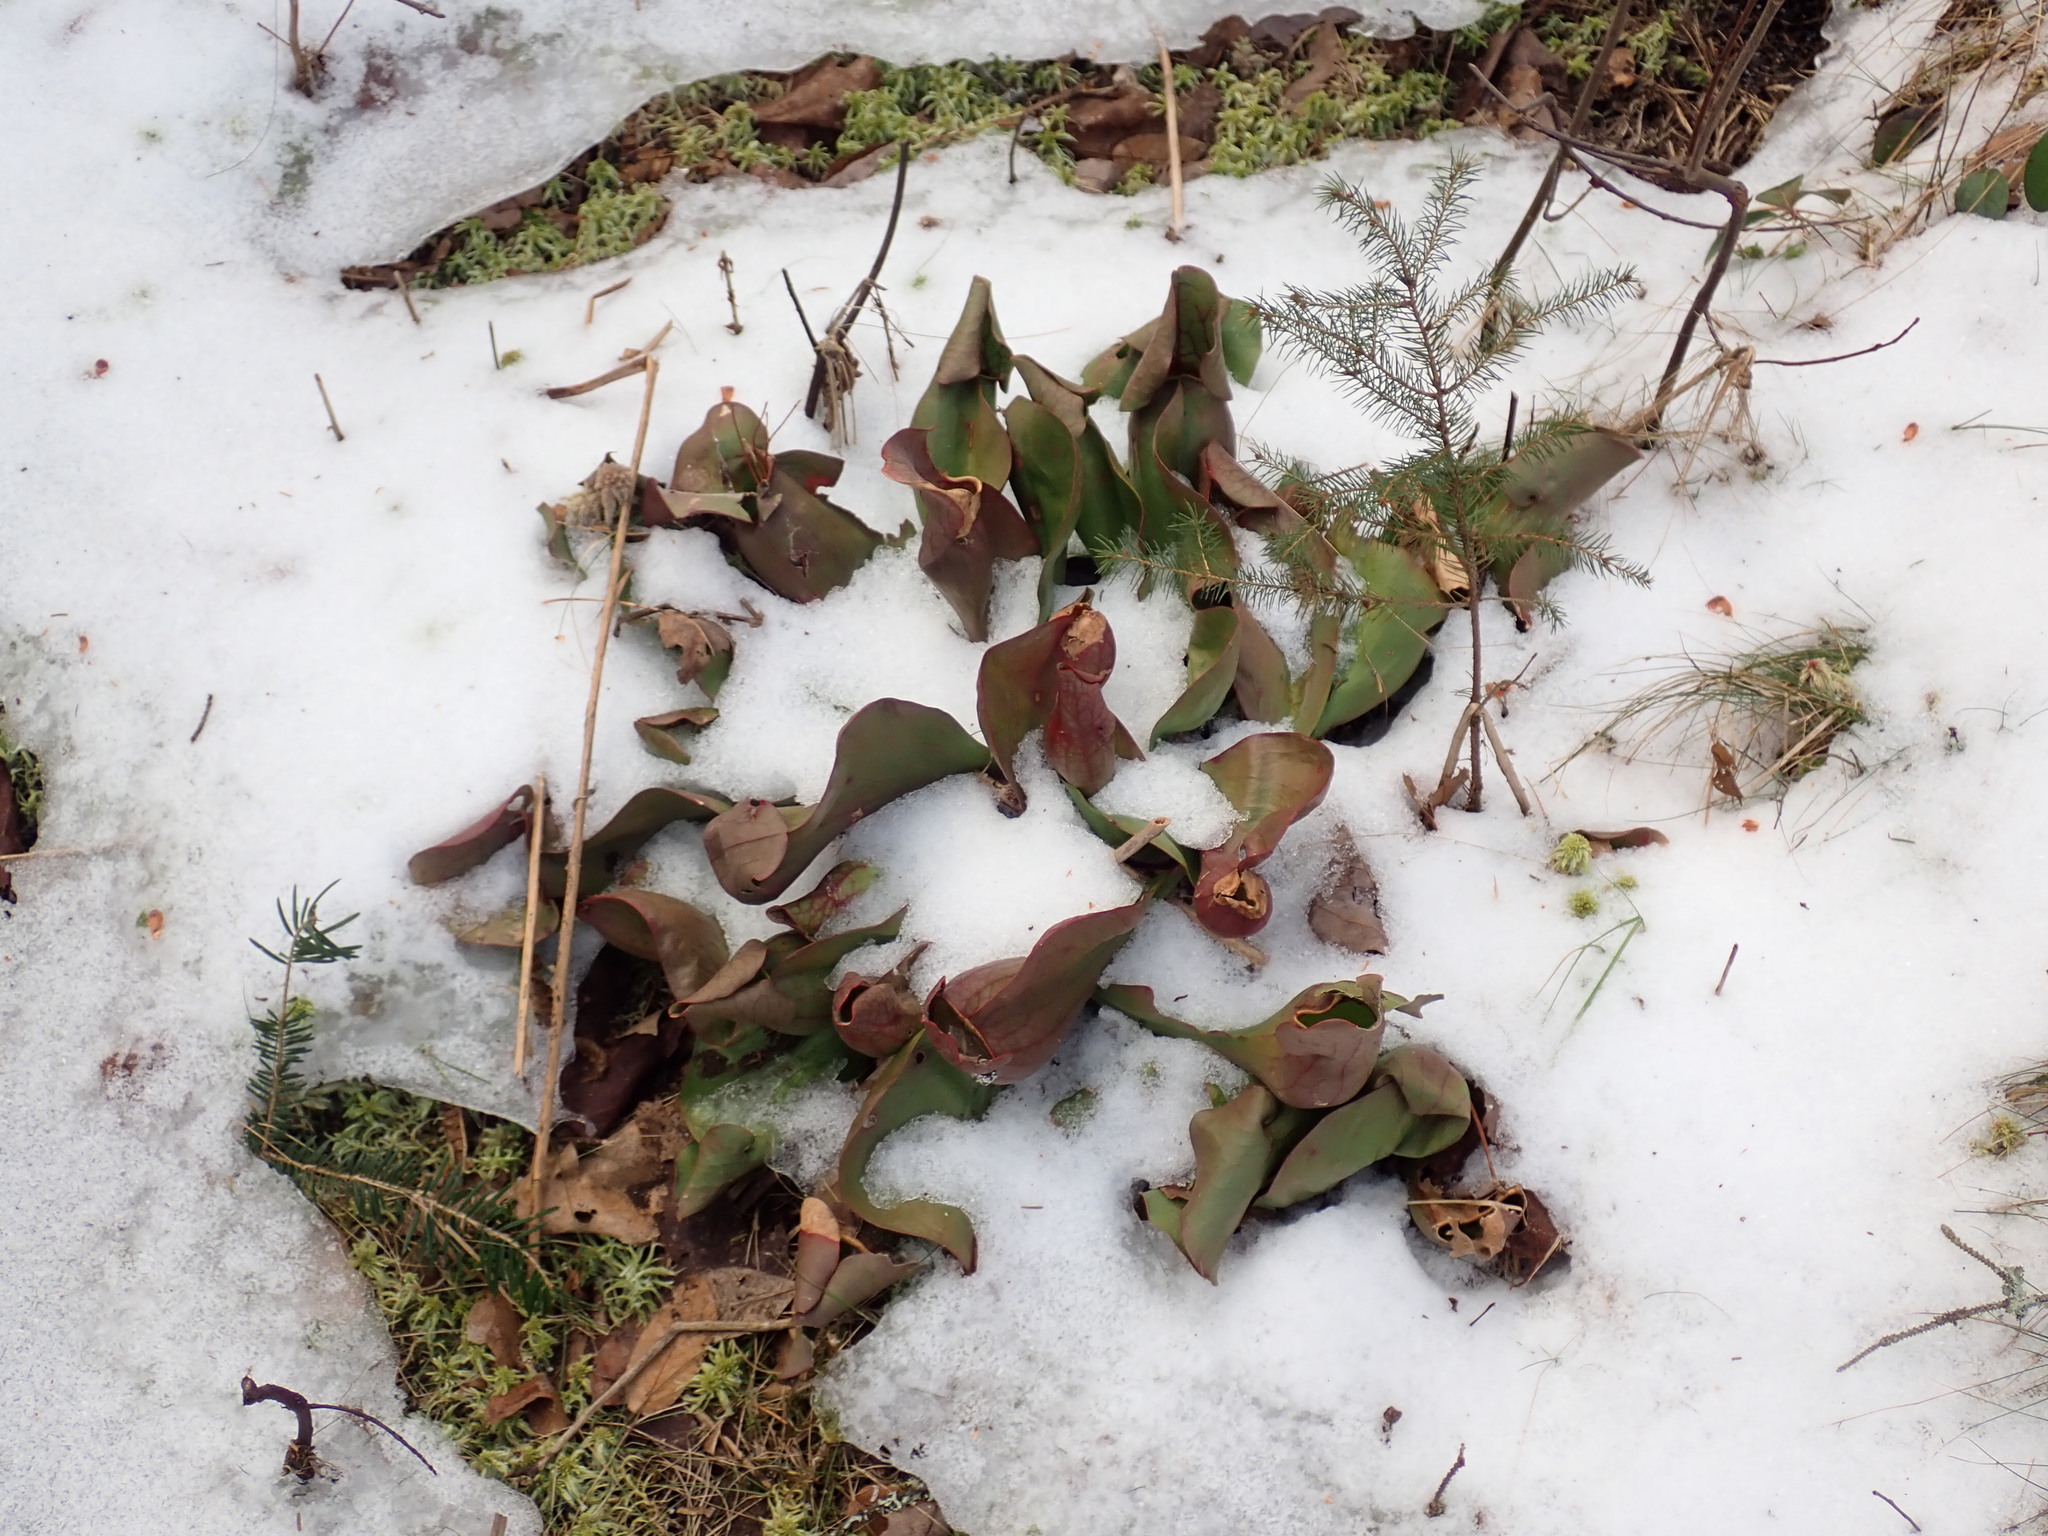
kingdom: Plantae
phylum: Tracheophyta
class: Magnoliopsida
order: Ericales
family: Sarraceniaceae
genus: Sarracenia
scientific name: Sarracenia purpurea
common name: Pitcherplant
